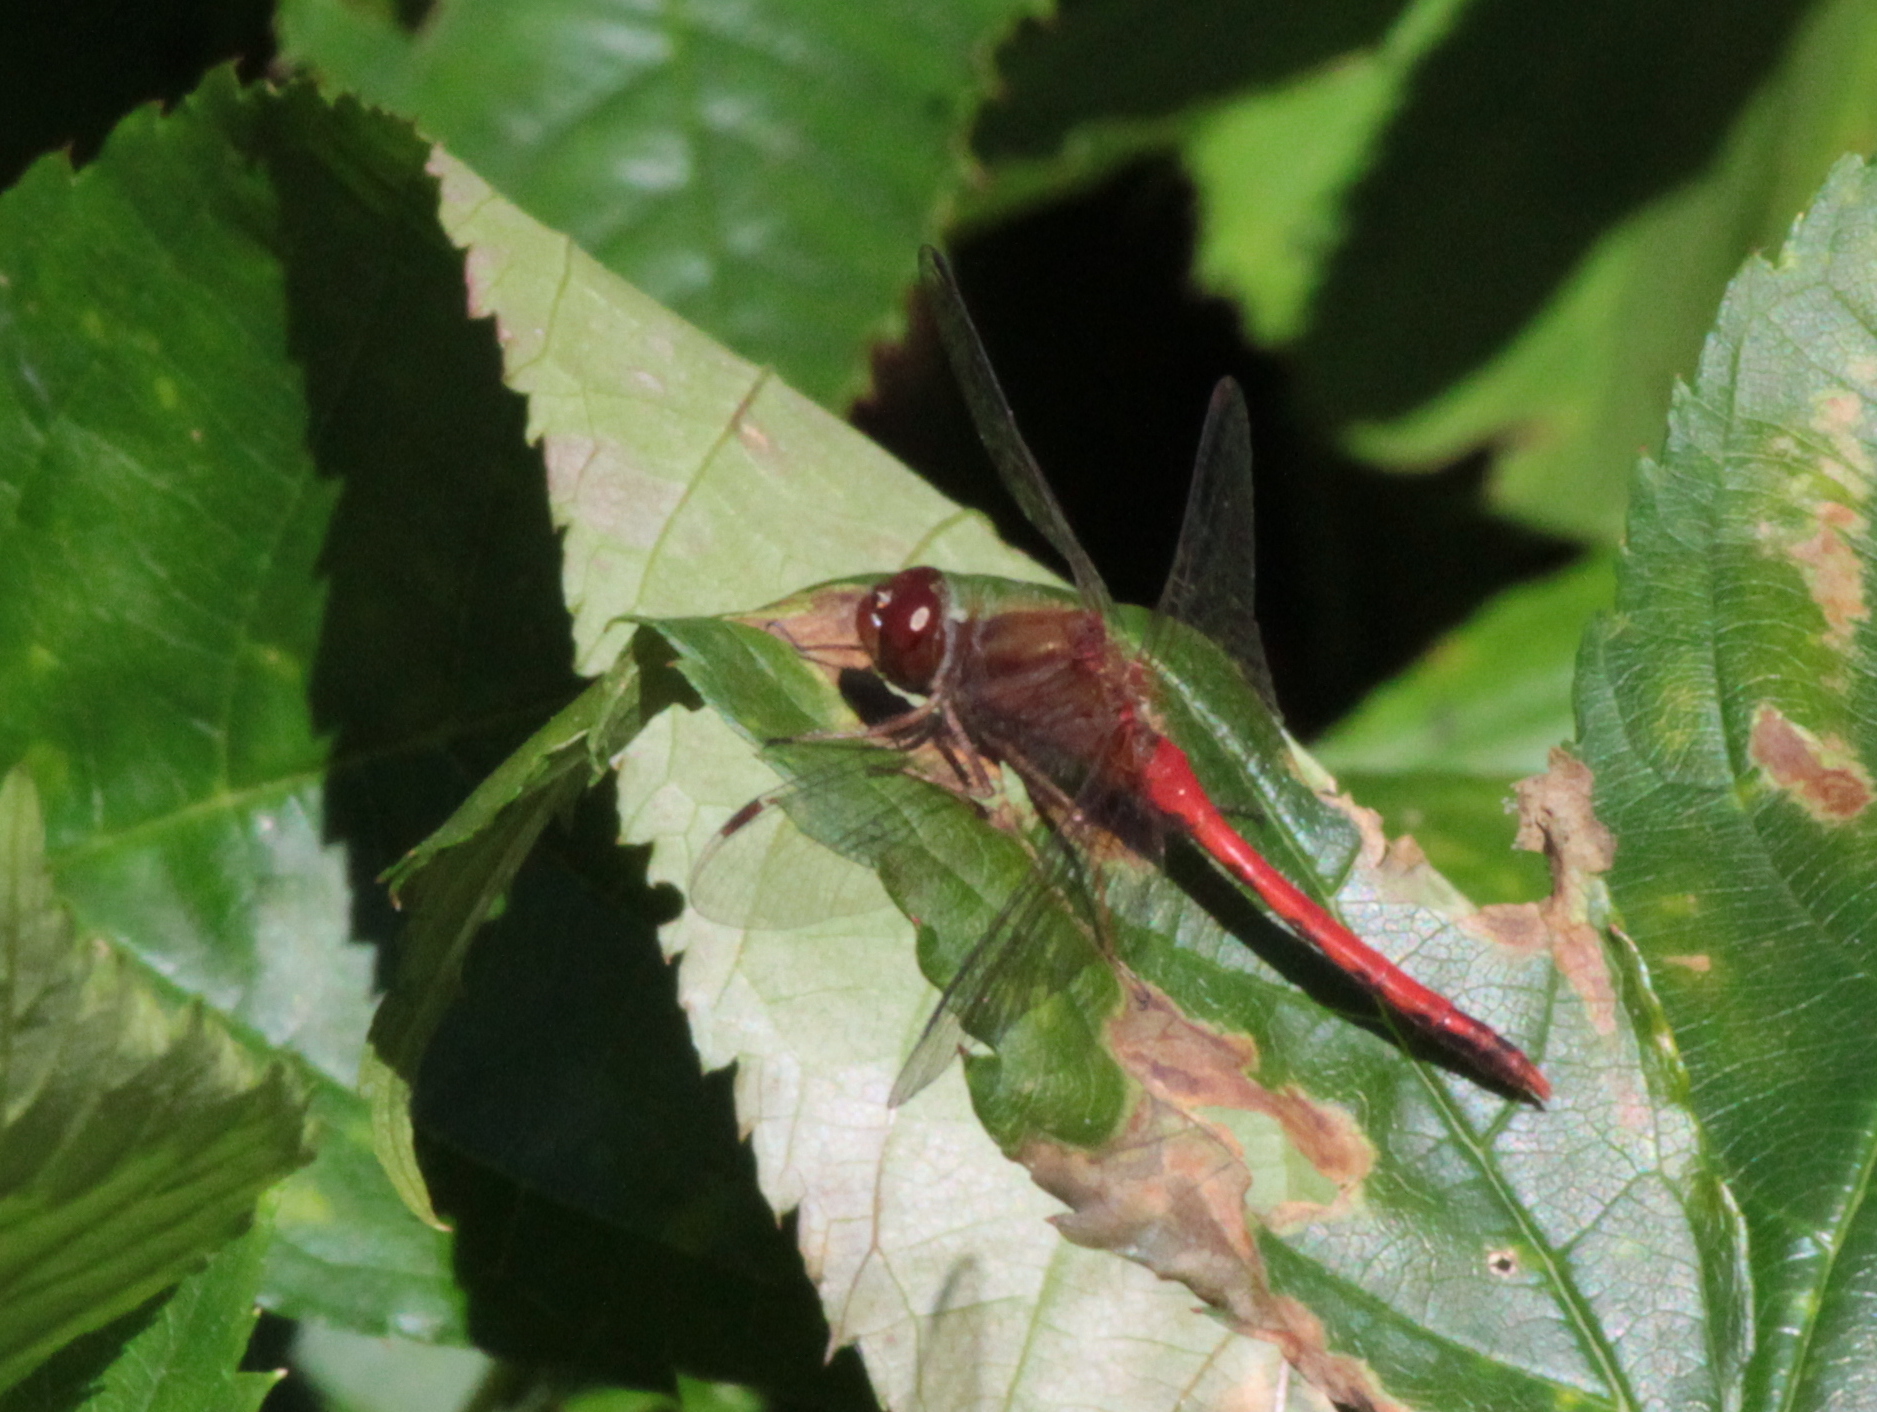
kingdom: Animalia
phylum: Arthropoda
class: Insecta
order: Odonata
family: Libellulidae
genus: Sympetrum
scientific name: Sympetrum vicinum
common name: Autumn meadowhawk
